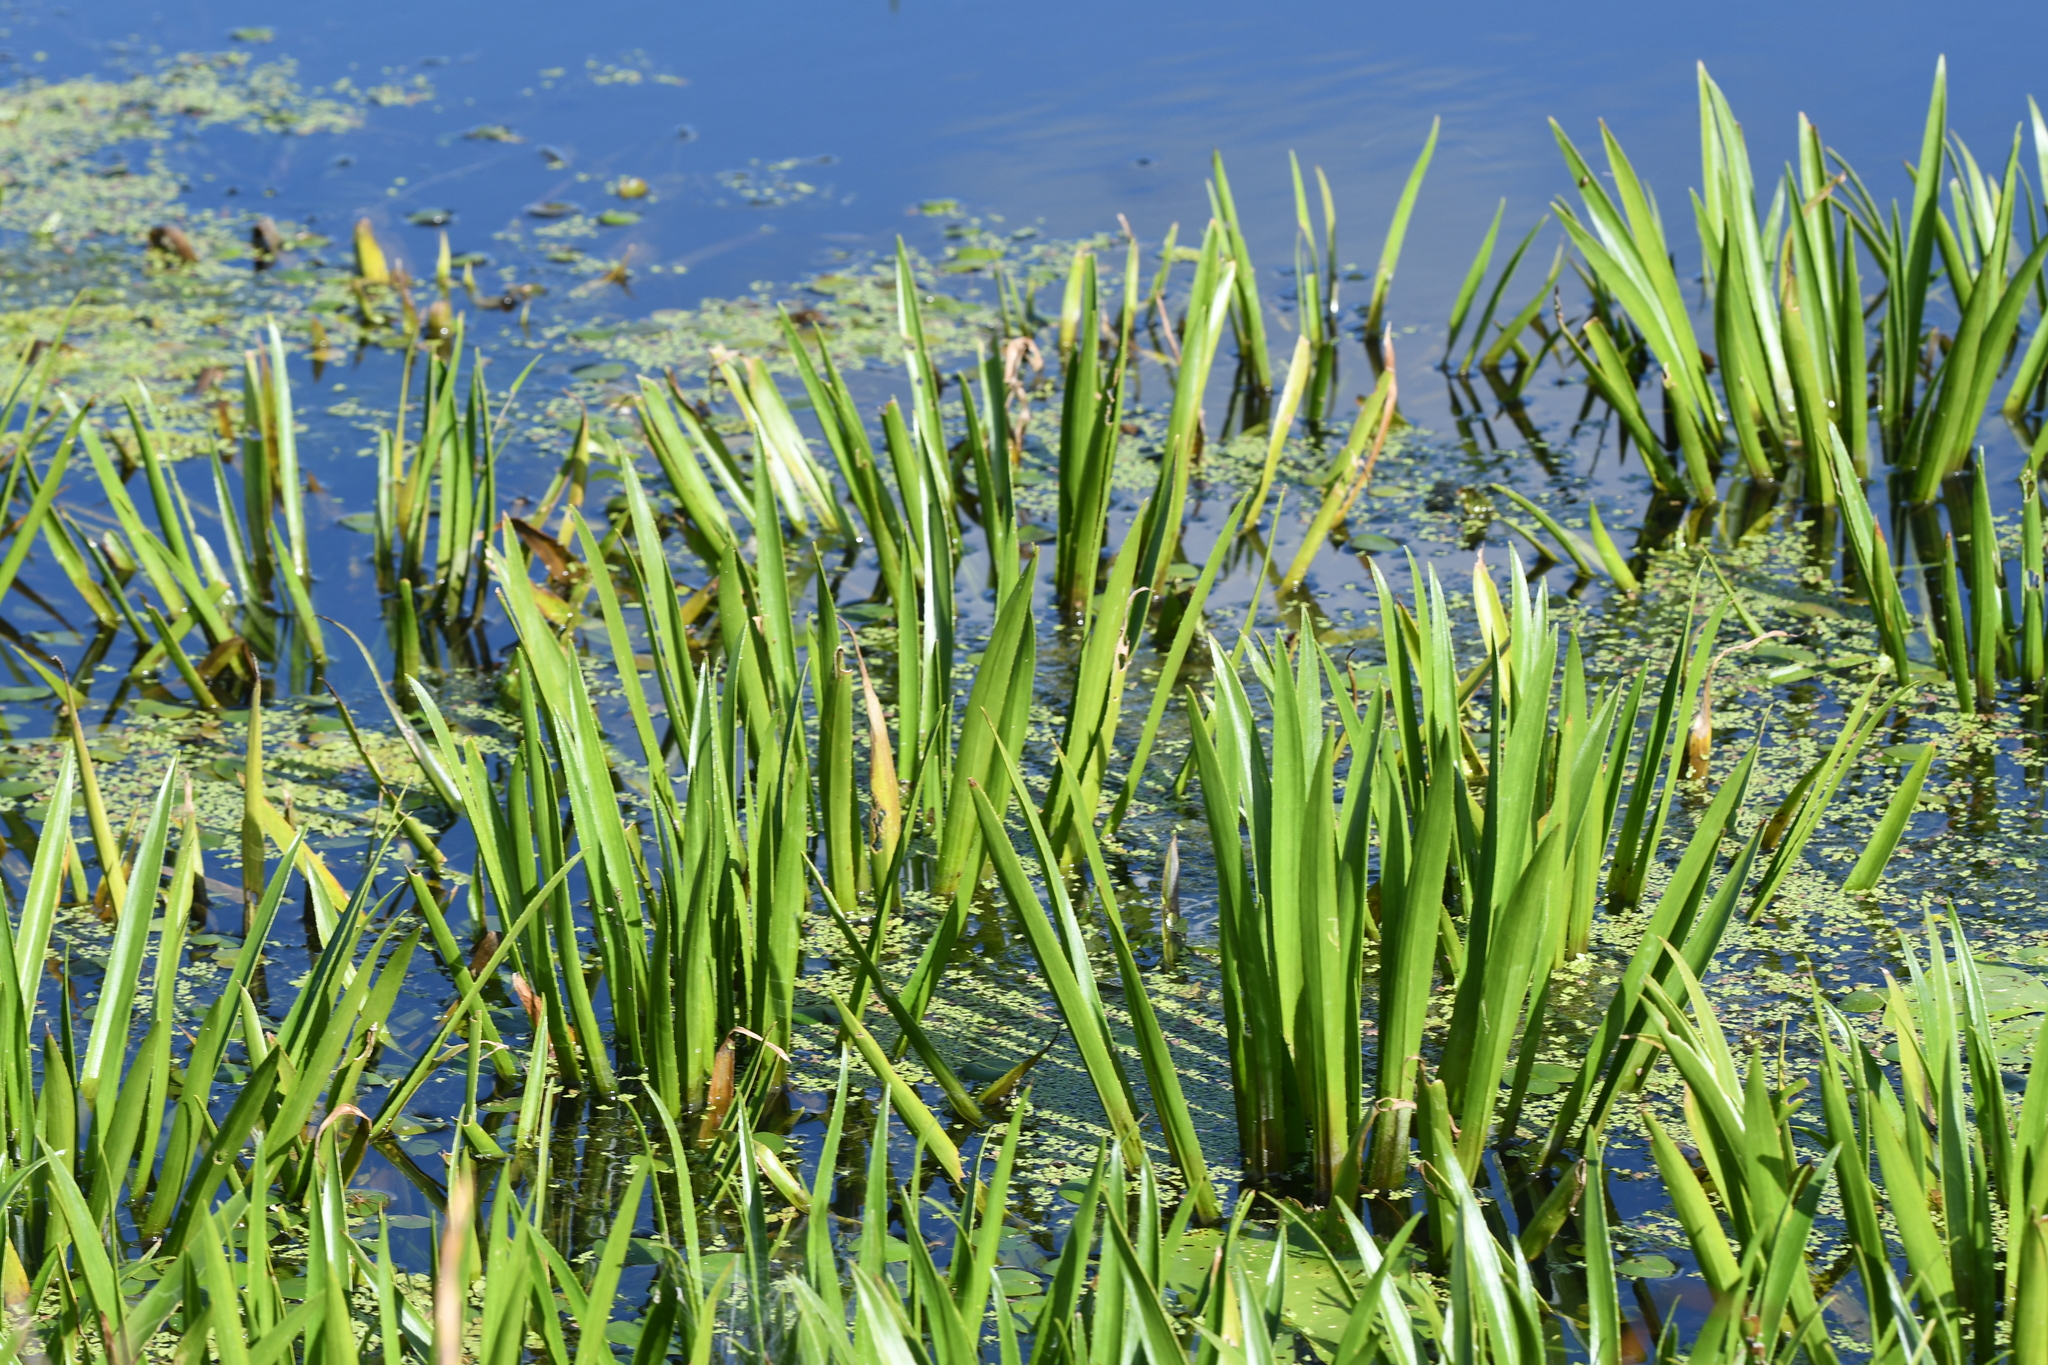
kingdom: Plantae
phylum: Tracheophyta
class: Liliopsida
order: Alismatales
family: Hydrocharitaceae
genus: Stratiotes
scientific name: Stratiotes aloides
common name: Water-soldier
